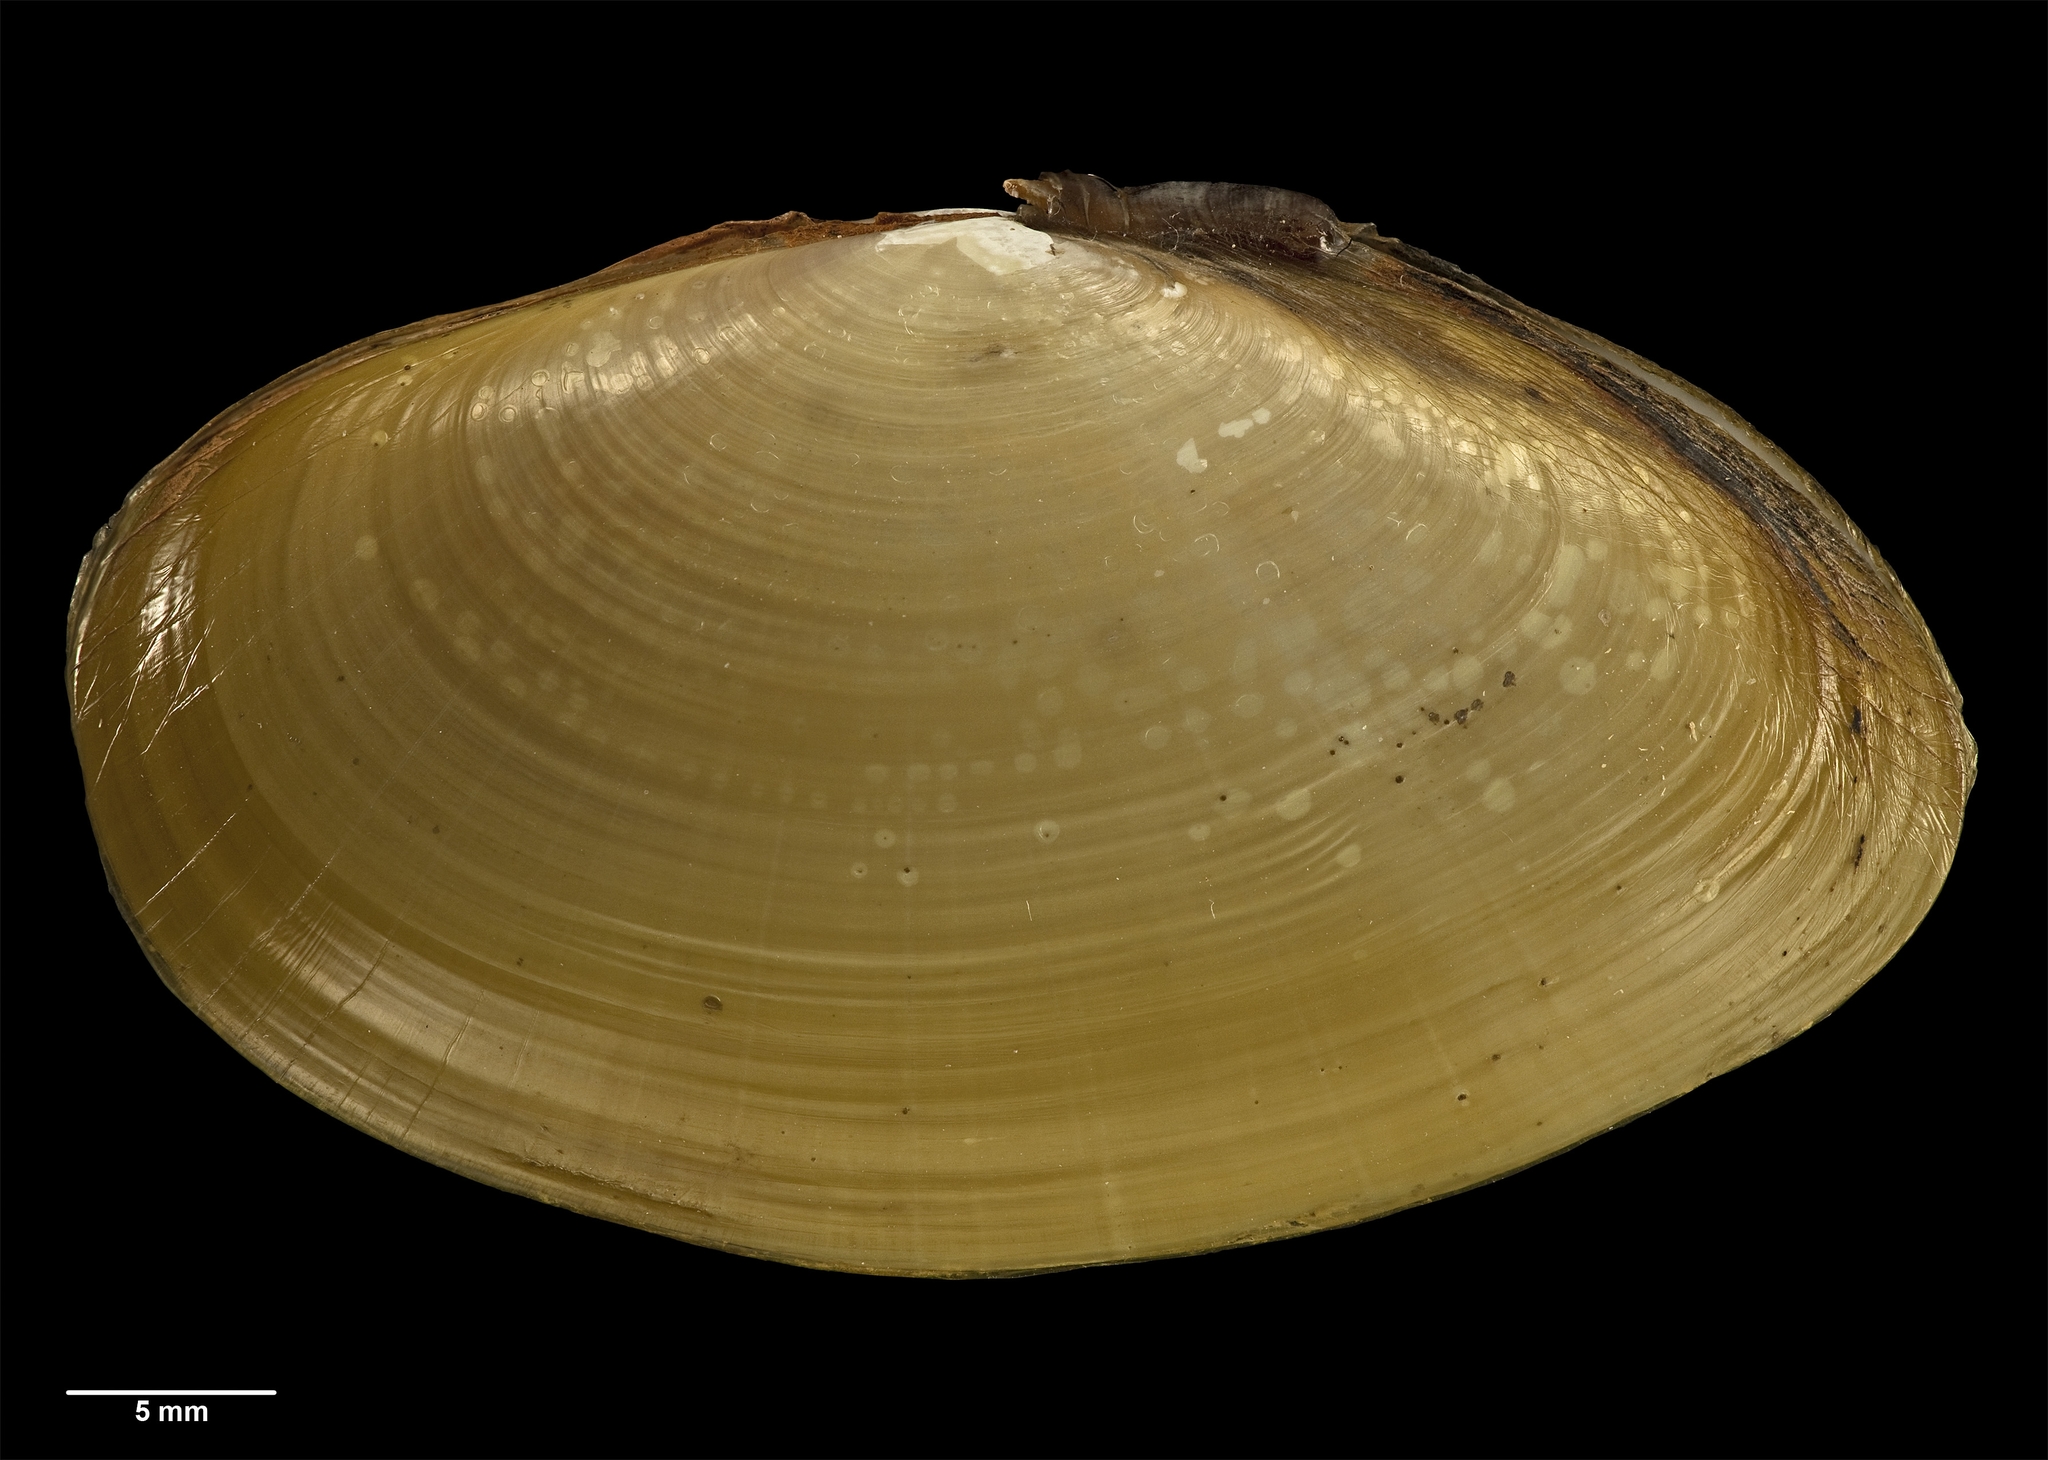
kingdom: Animalia
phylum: Mollusca
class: Bivalvia
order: Cardiida
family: Psammobiidae
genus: Hiatula
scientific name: Hiatula siliquens
